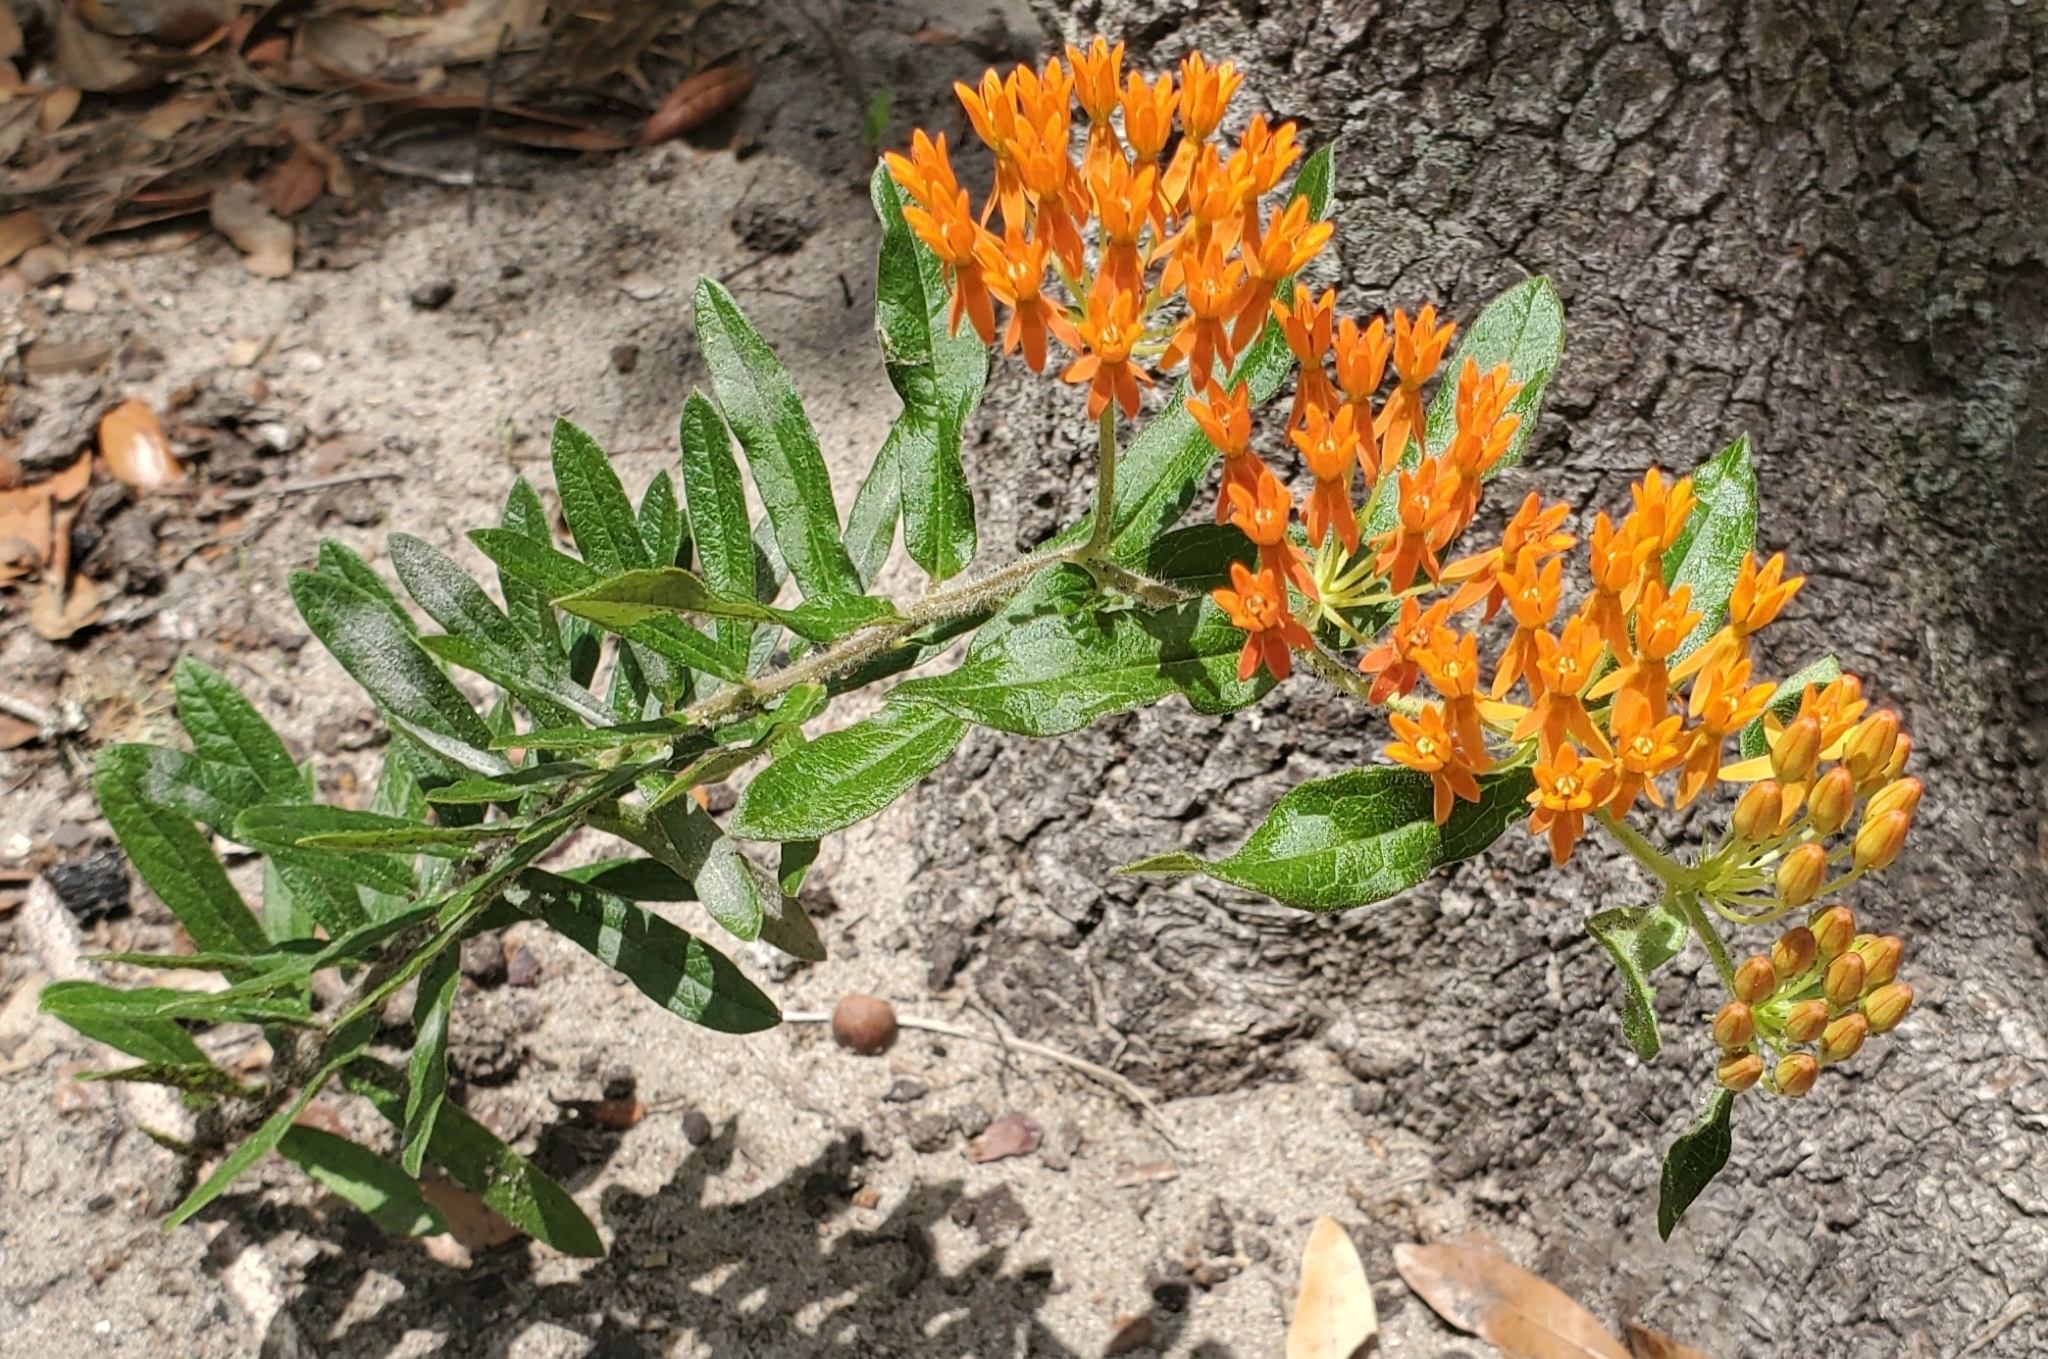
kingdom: Plantae
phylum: Tracheophyta
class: Magnoliopsida
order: Gentianales
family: Apocynaceae
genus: Asclepias
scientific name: Asclepias tuberosa
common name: Butterfly milkweed
